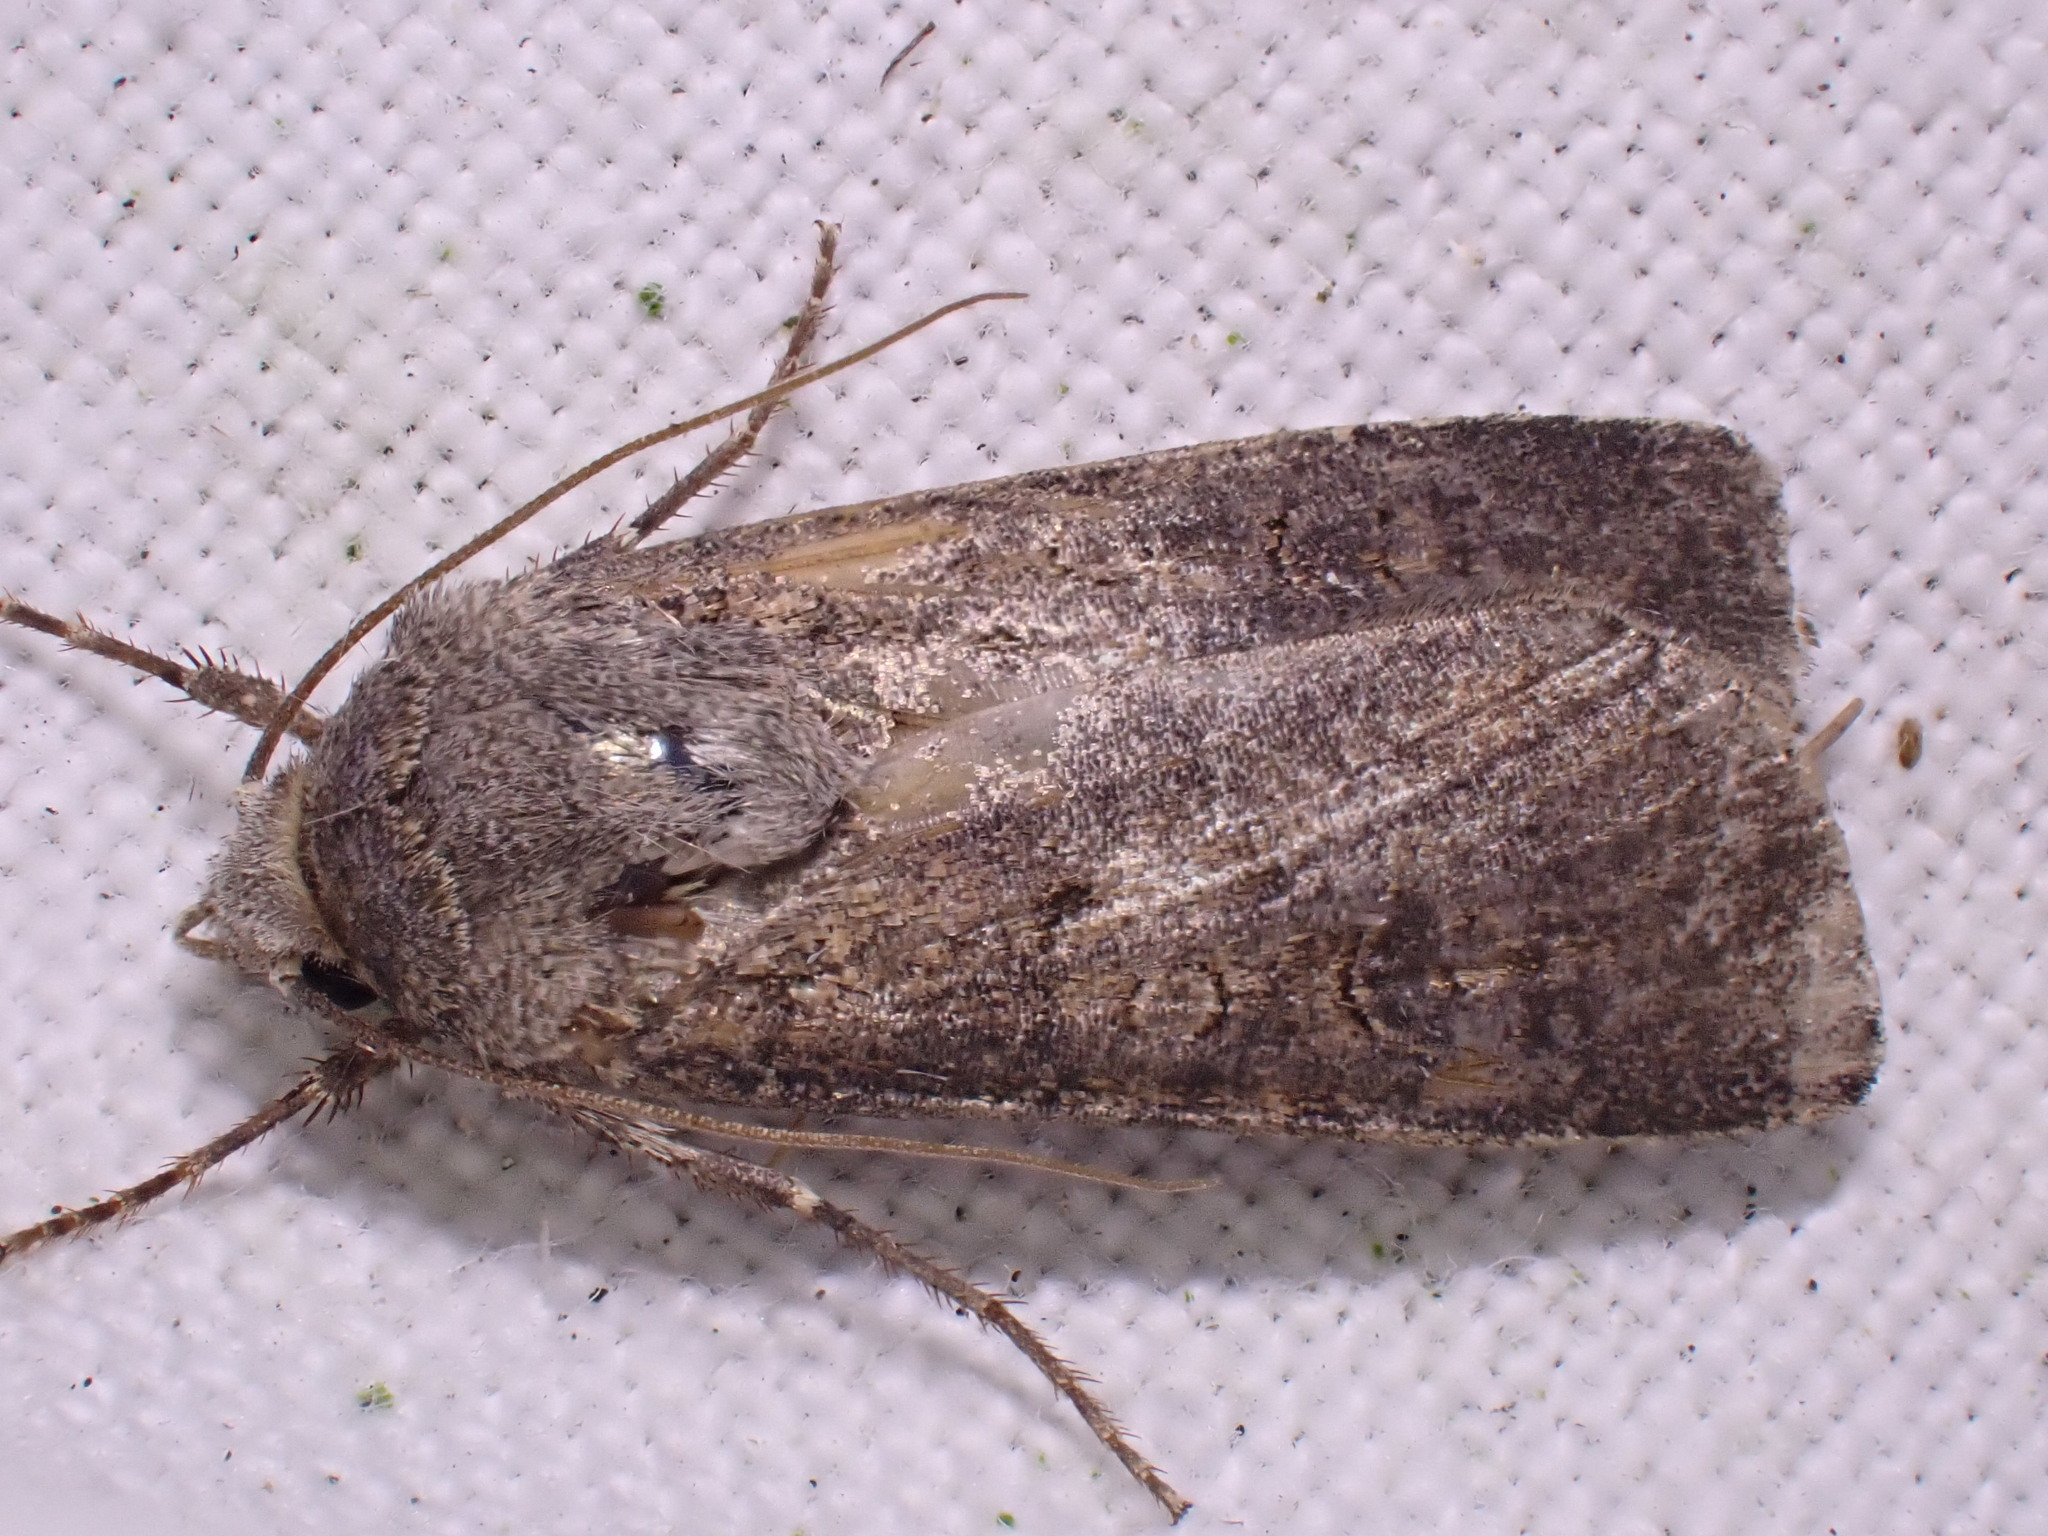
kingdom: Animalia
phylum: Arthropoda
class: Insecta
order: Lepidoptera
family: Noctuidae
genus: Agrotis
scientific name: Agrotis segetum
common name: Turnip moth
